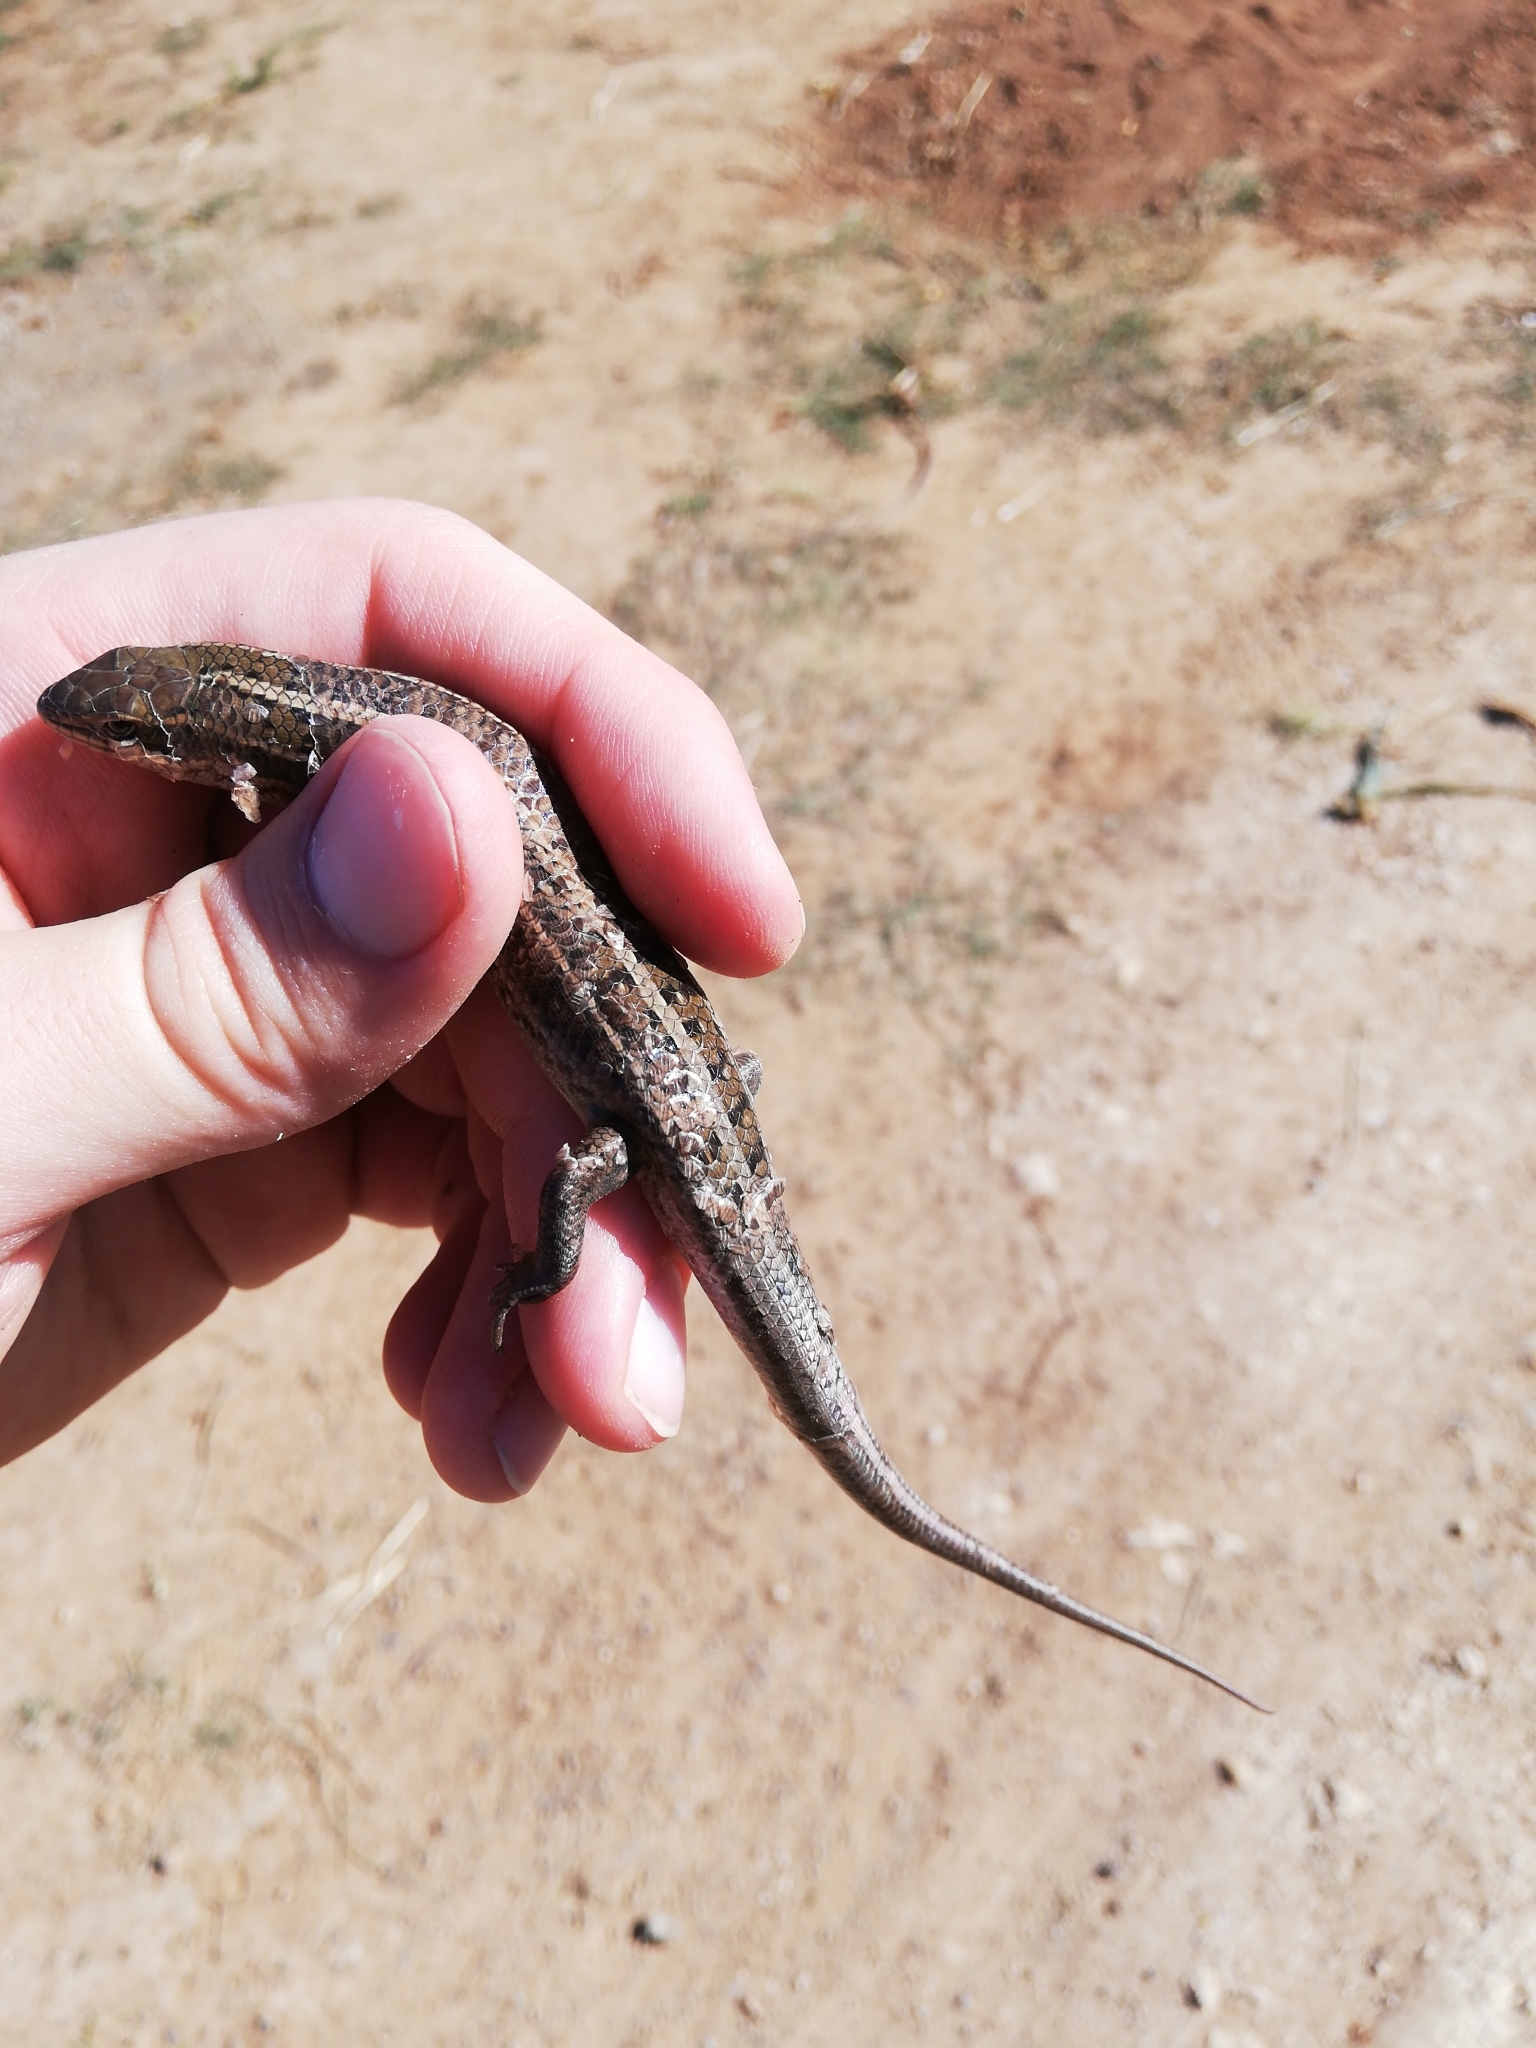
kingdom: Animalia
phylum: Chordata
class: Squamata
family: Scincidae
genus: Trachylepis
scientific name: Trachylepis capensis
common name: Cape skink
